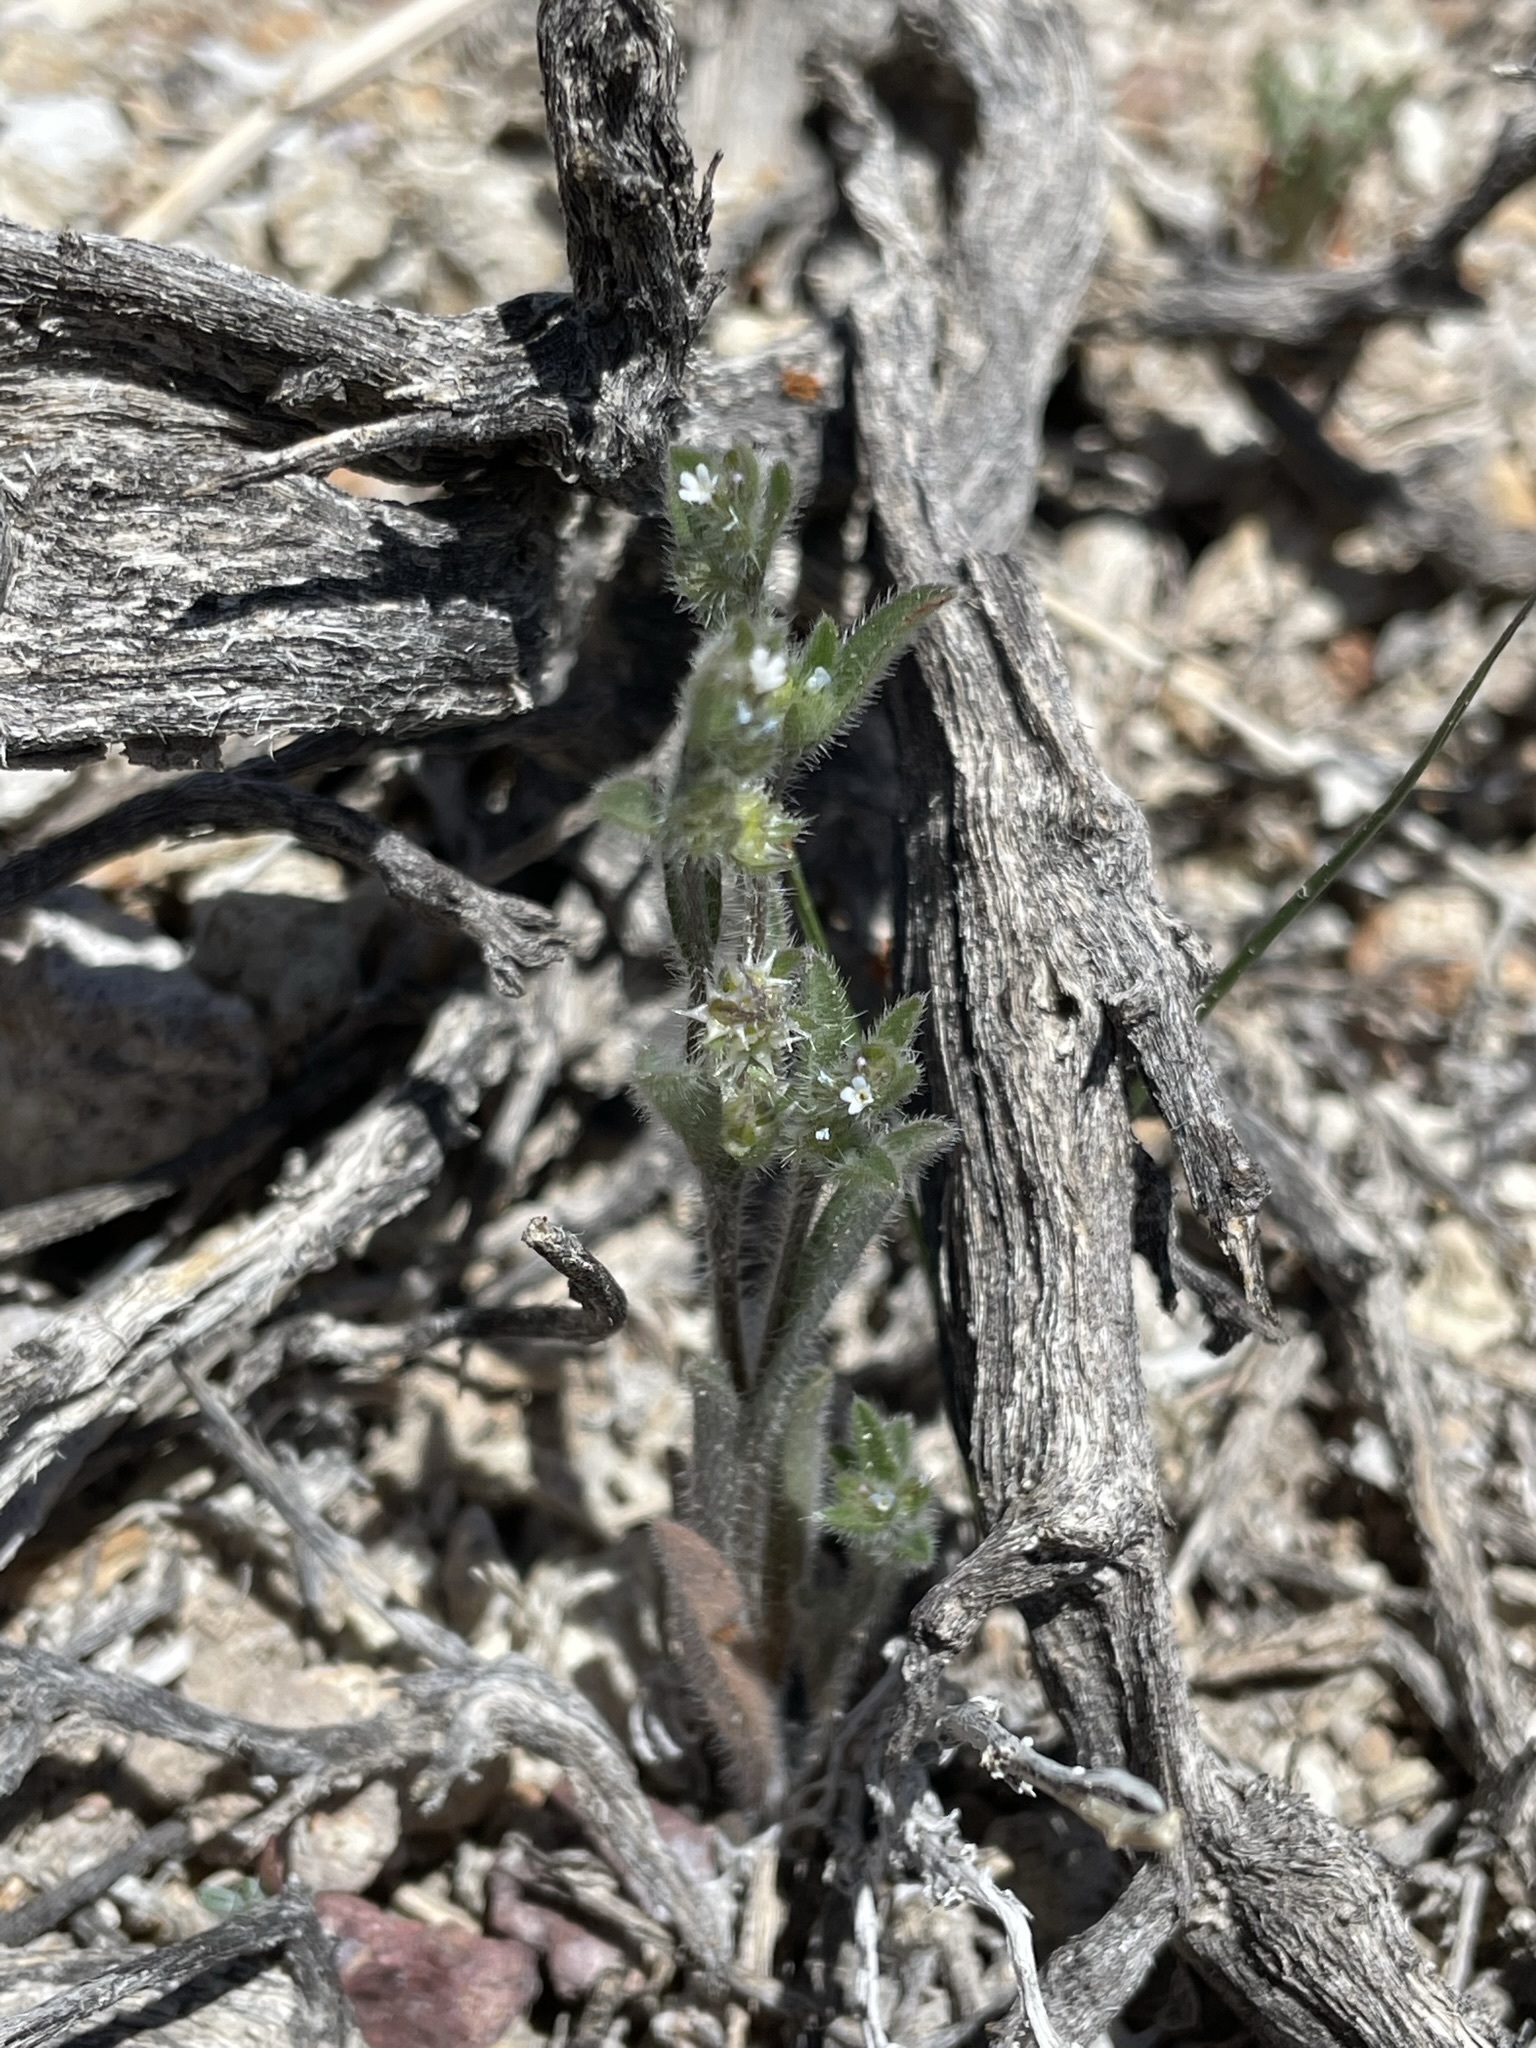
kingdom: Plantae
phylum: Tracheophyta
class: Magnoliopsida
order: Boraginales
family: Boraginaceae
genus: Lappula
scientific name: Lappula occidentalis
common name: Western stickseed
